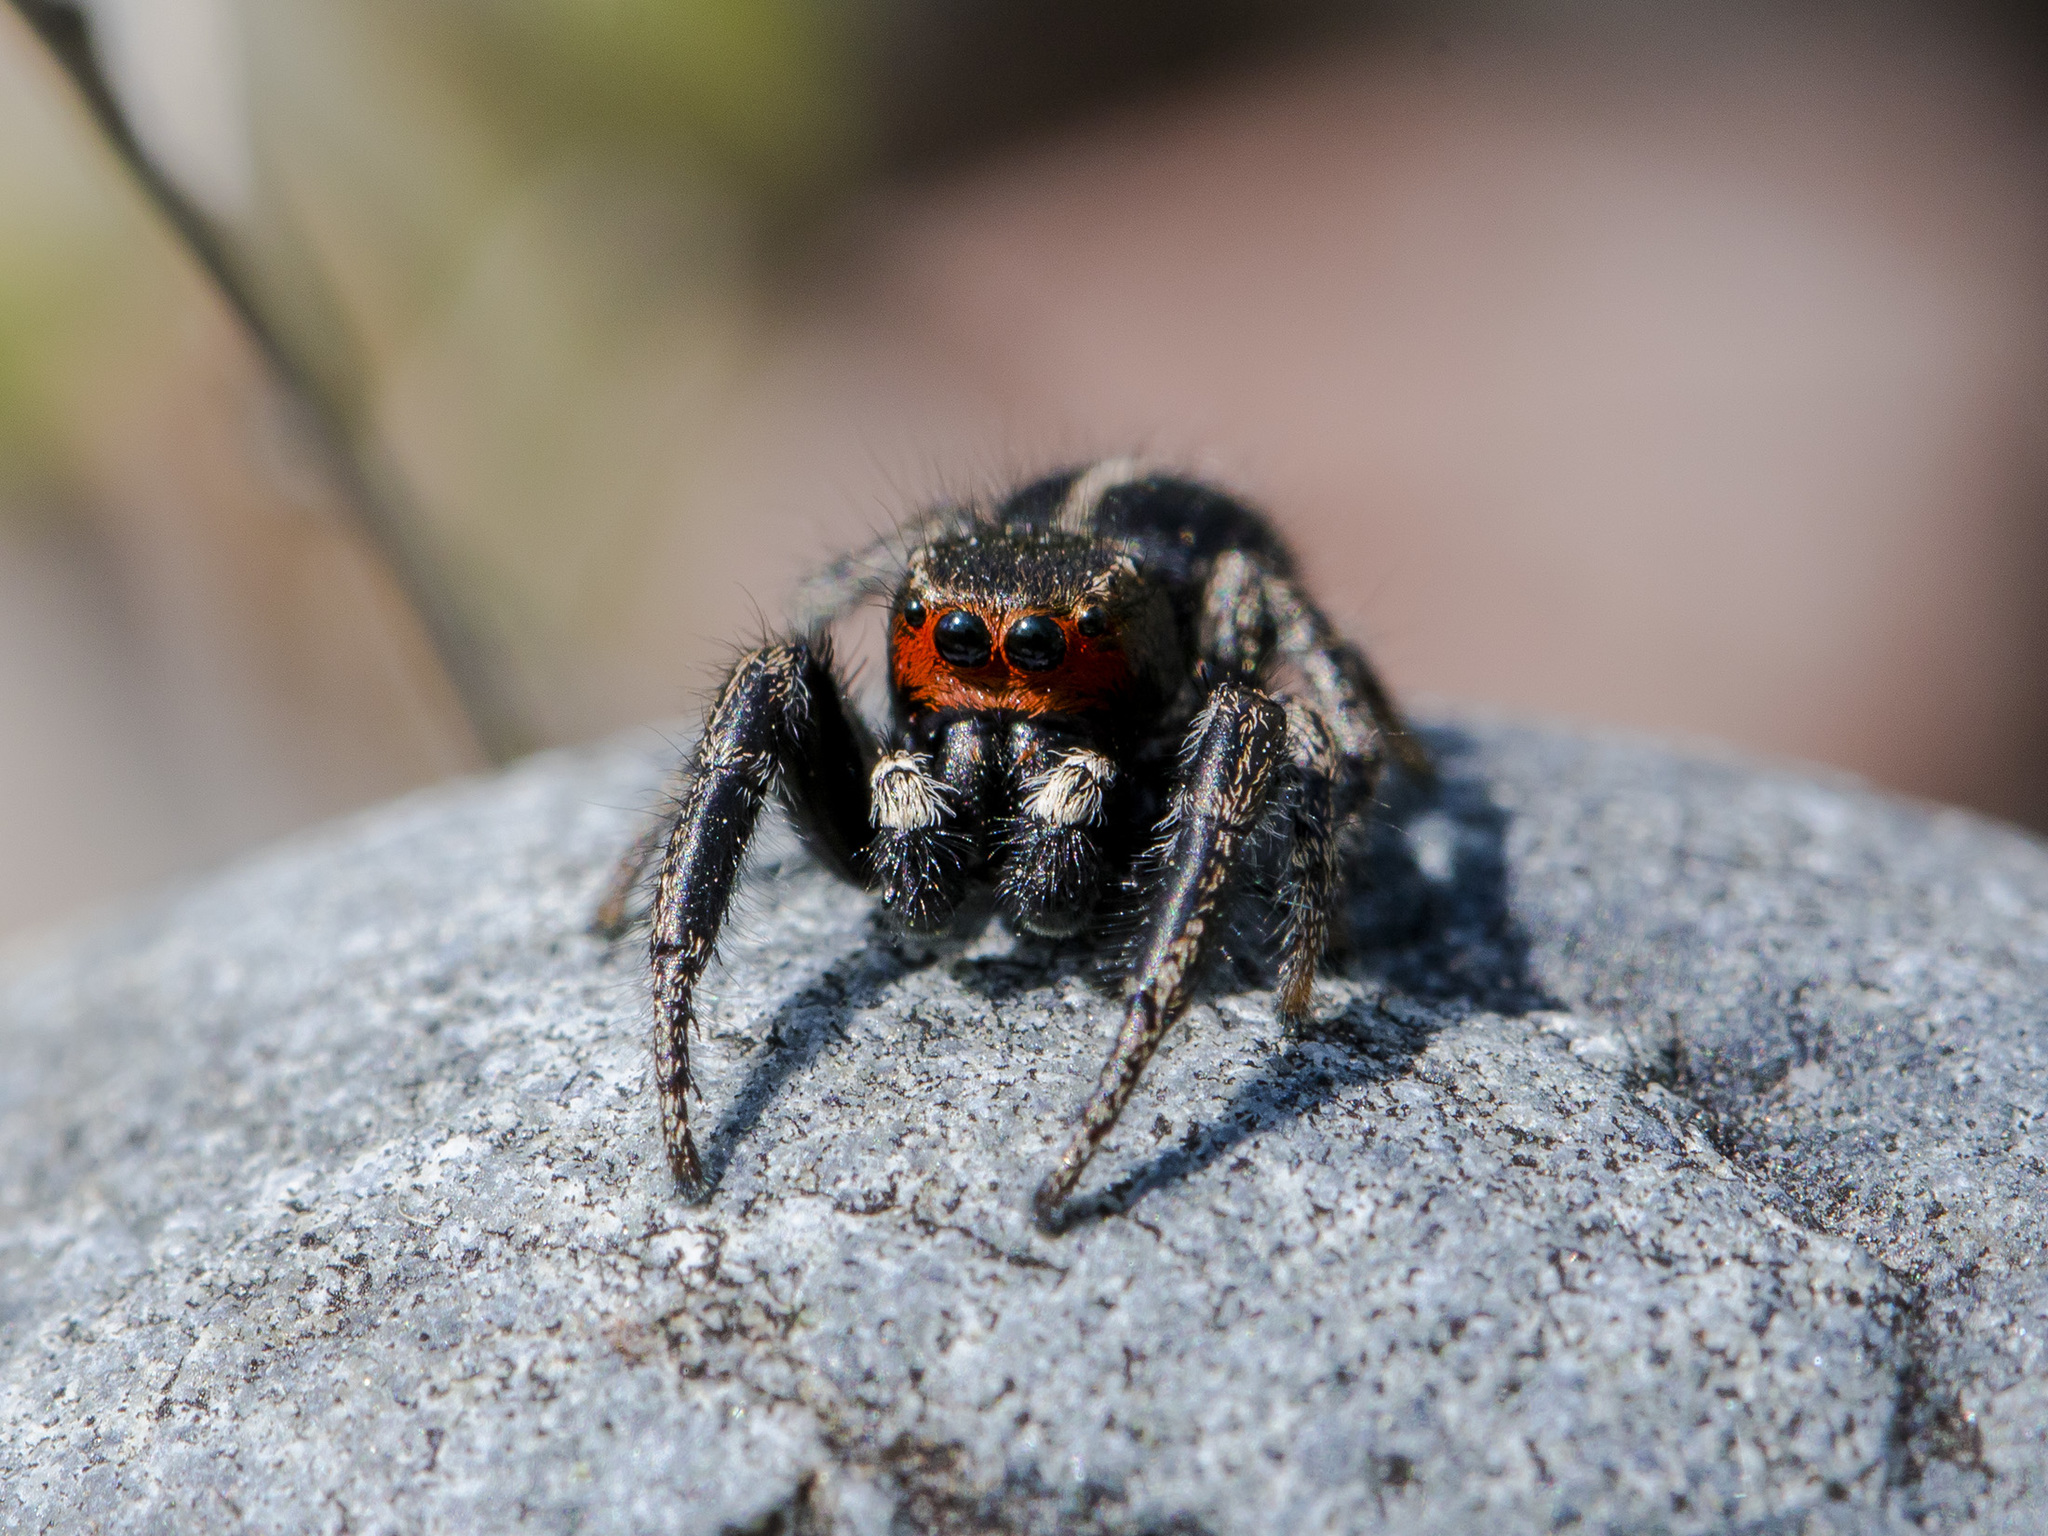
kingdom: Animalia
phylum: Arthropoda
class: Arachnida
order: Araneae
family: Salticidae
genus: Pellenes
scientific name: Pellenes seriatus
